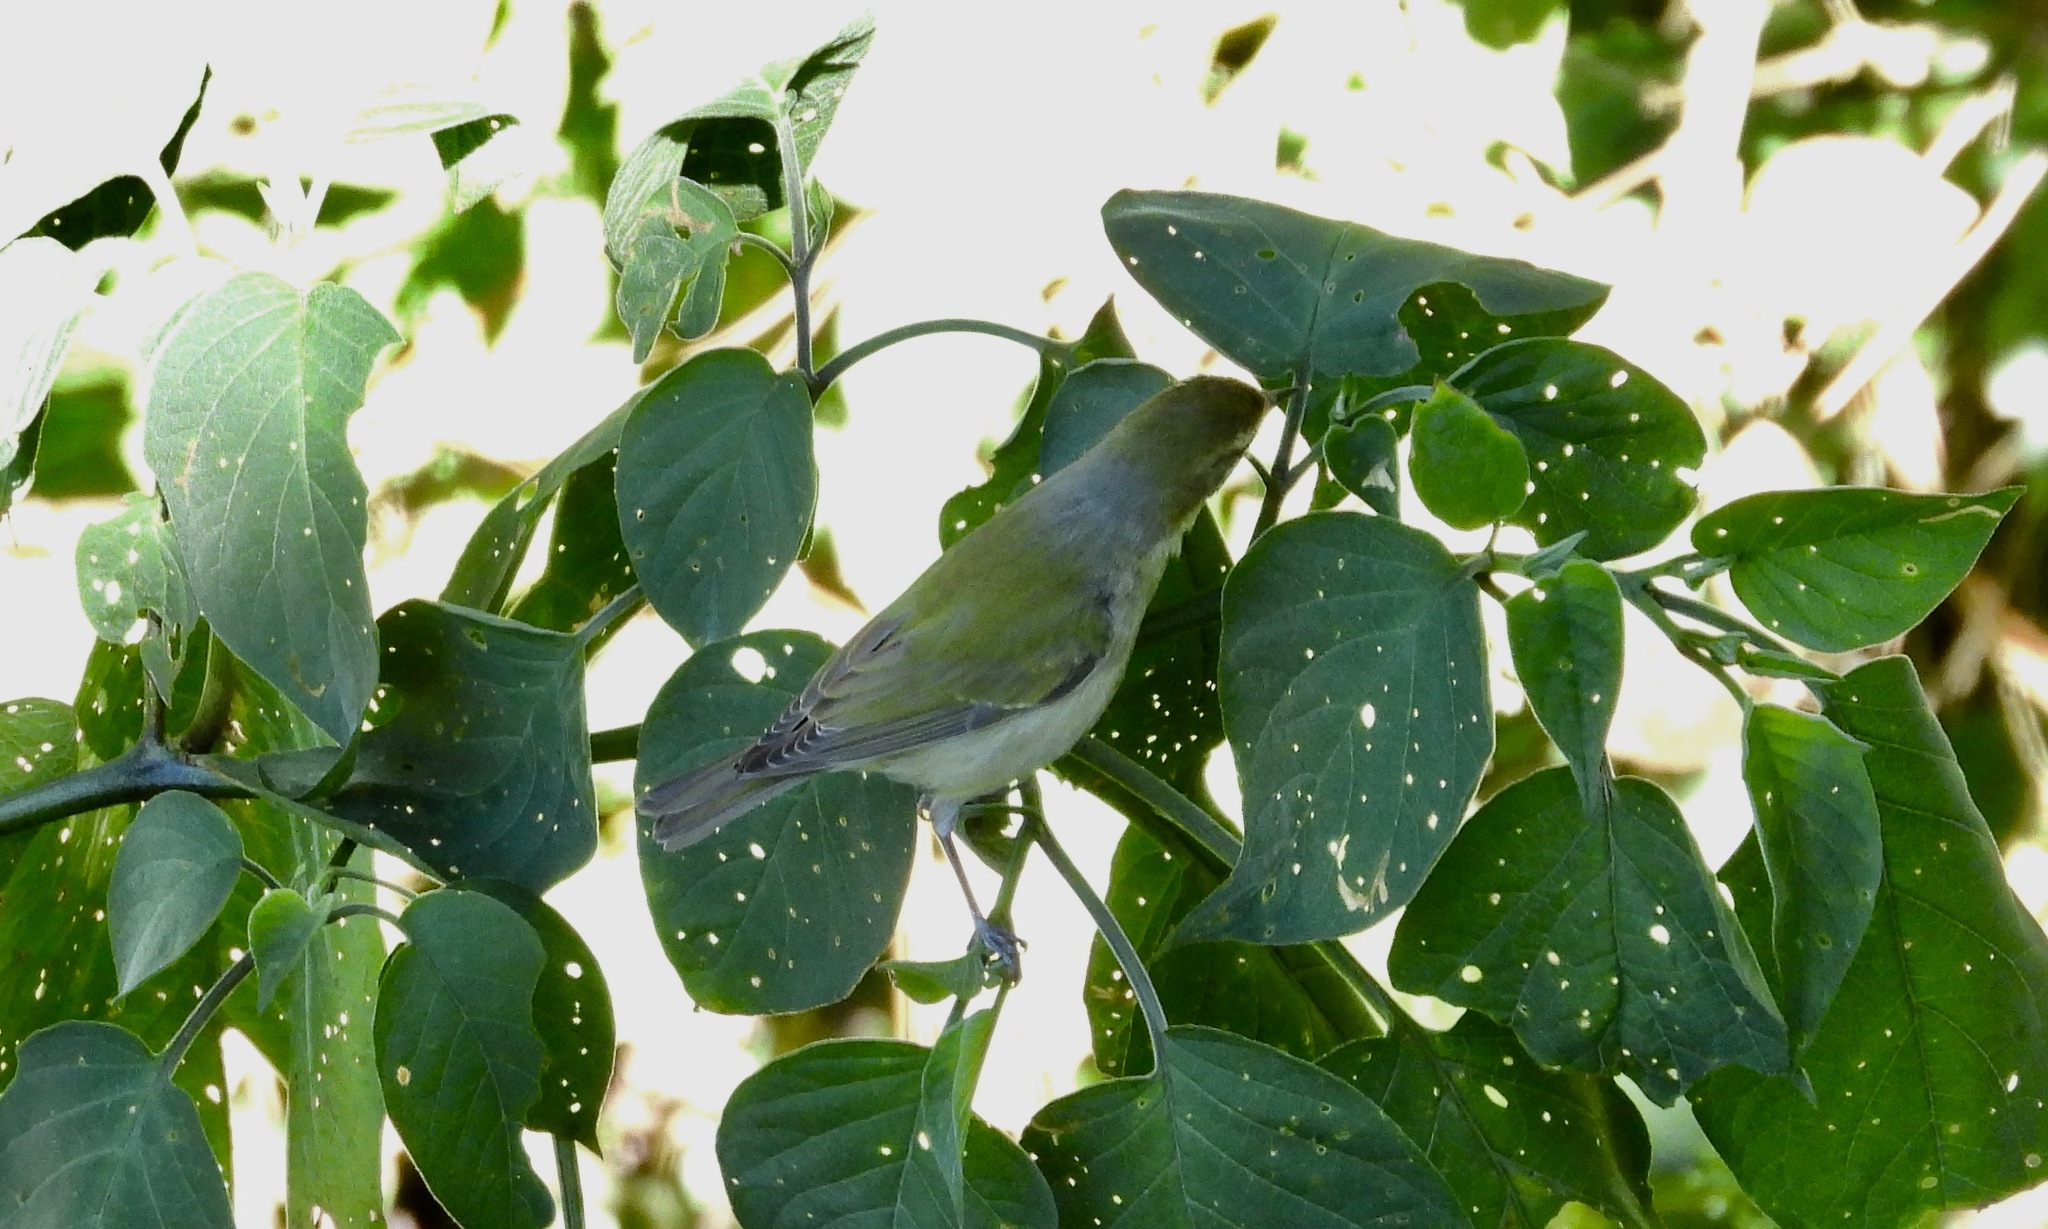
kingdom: Animalia
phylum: Chordata
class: Aves
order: Passeriformes
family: Parulidae
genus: Leiothlypis
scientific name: Leiothlypis peregrina
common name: Tennessee warbler
